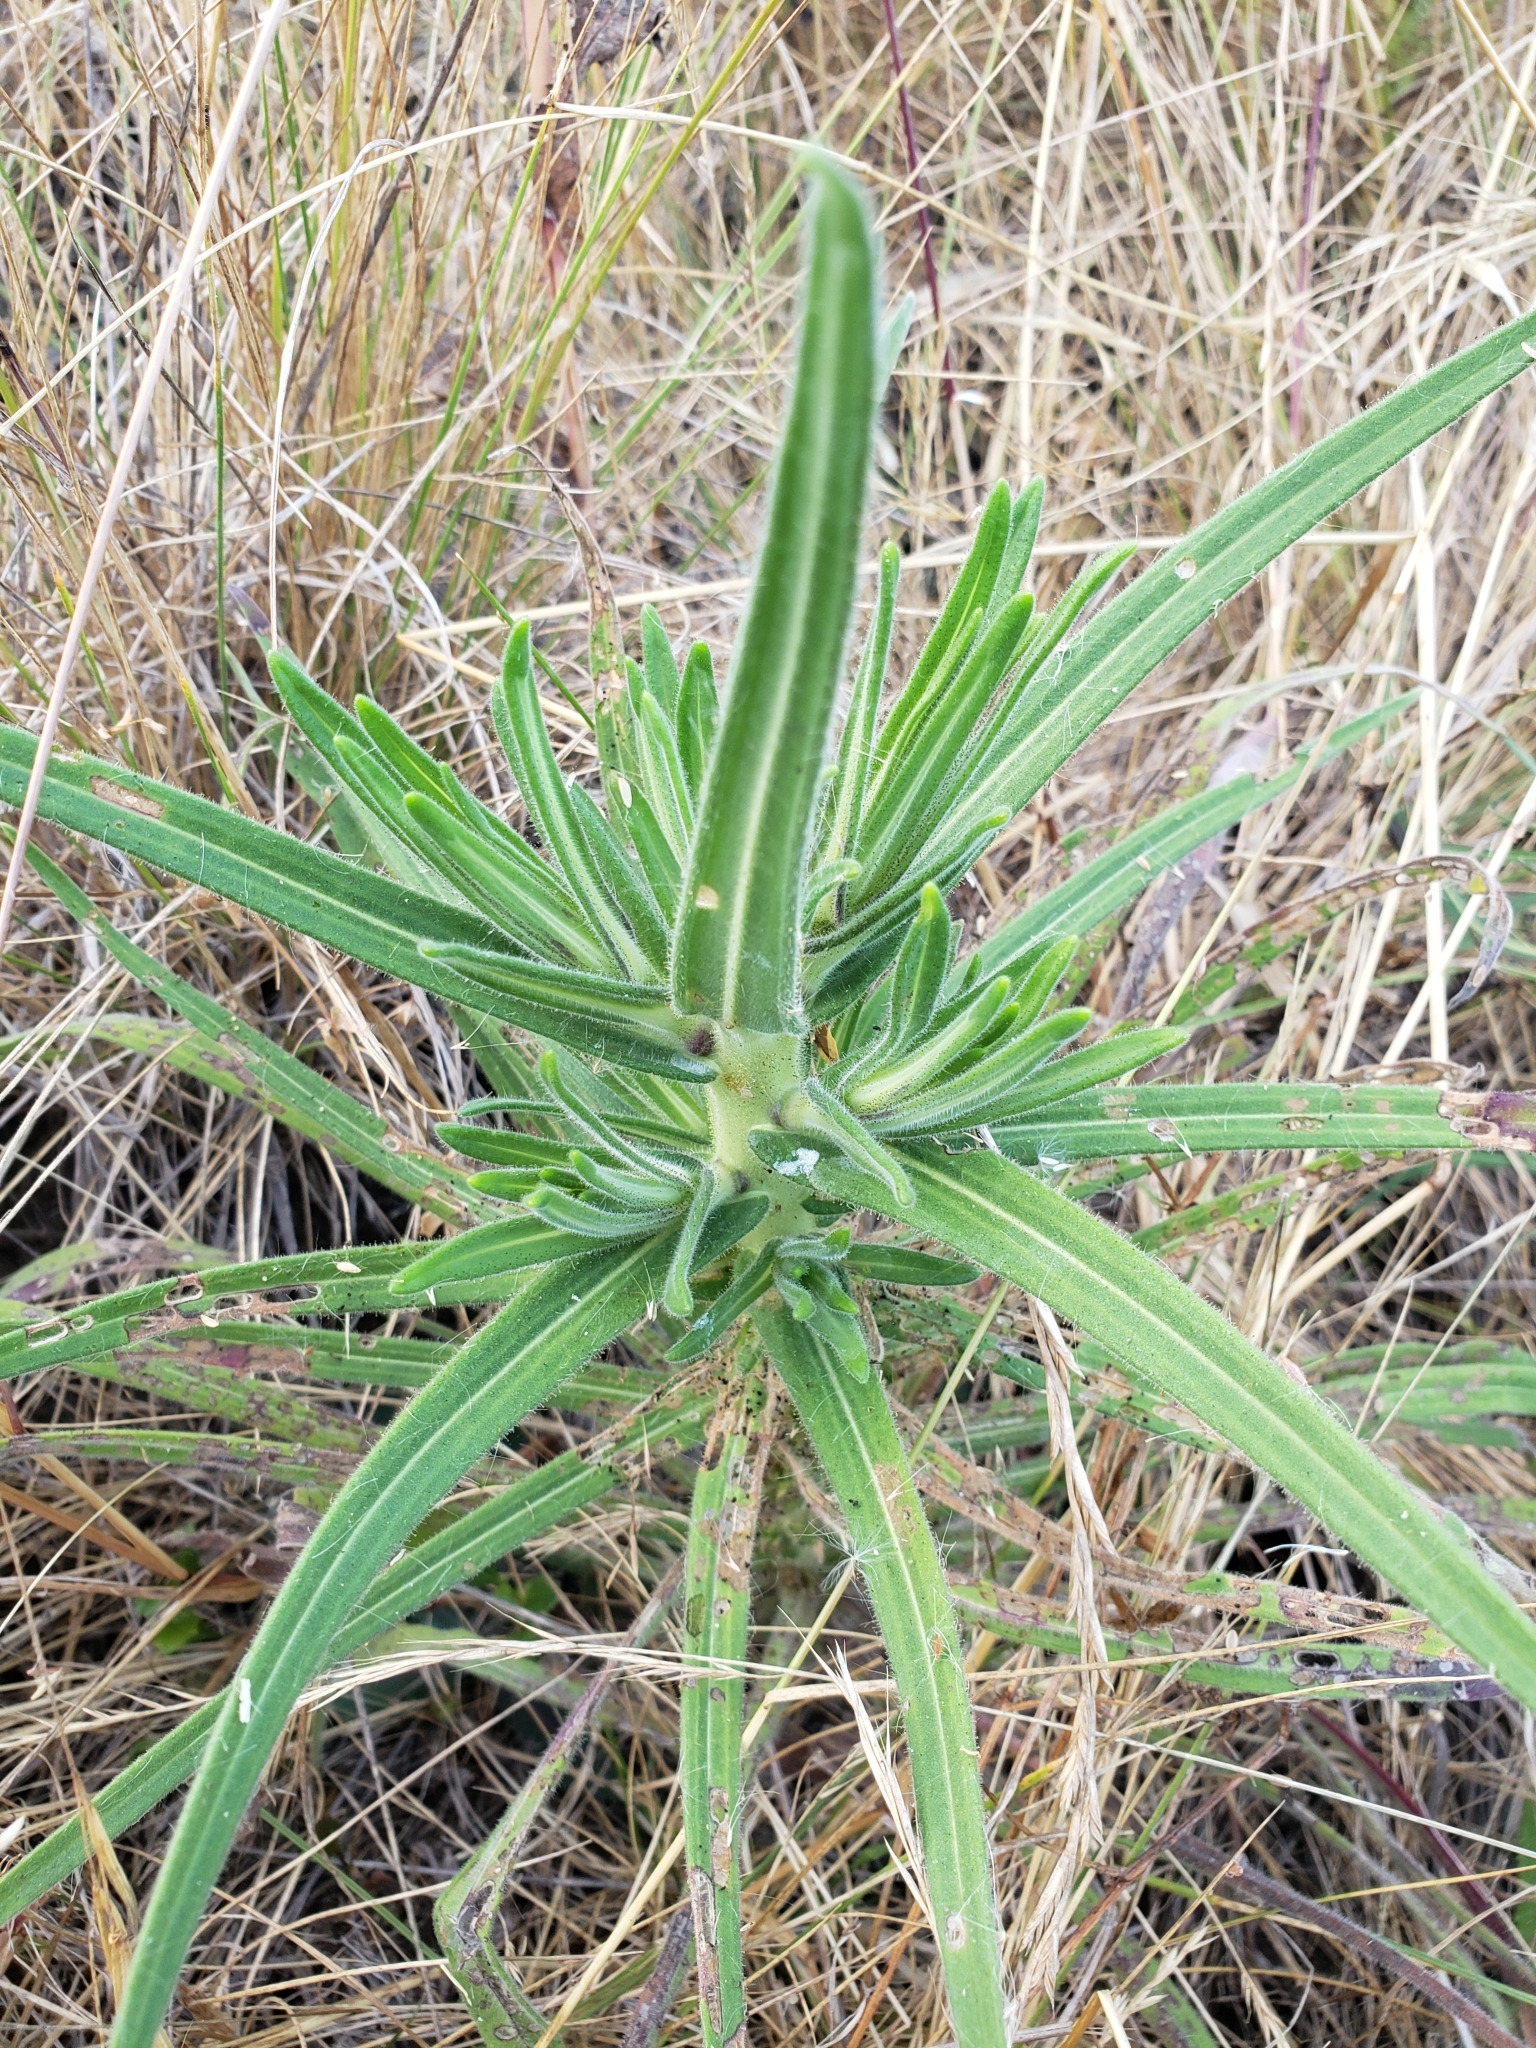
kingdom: Plantae
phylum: Tracheophyta
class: Magnoliopsida
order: Asterales
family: Asteraceae
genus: Madia
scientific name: Madia elegans
